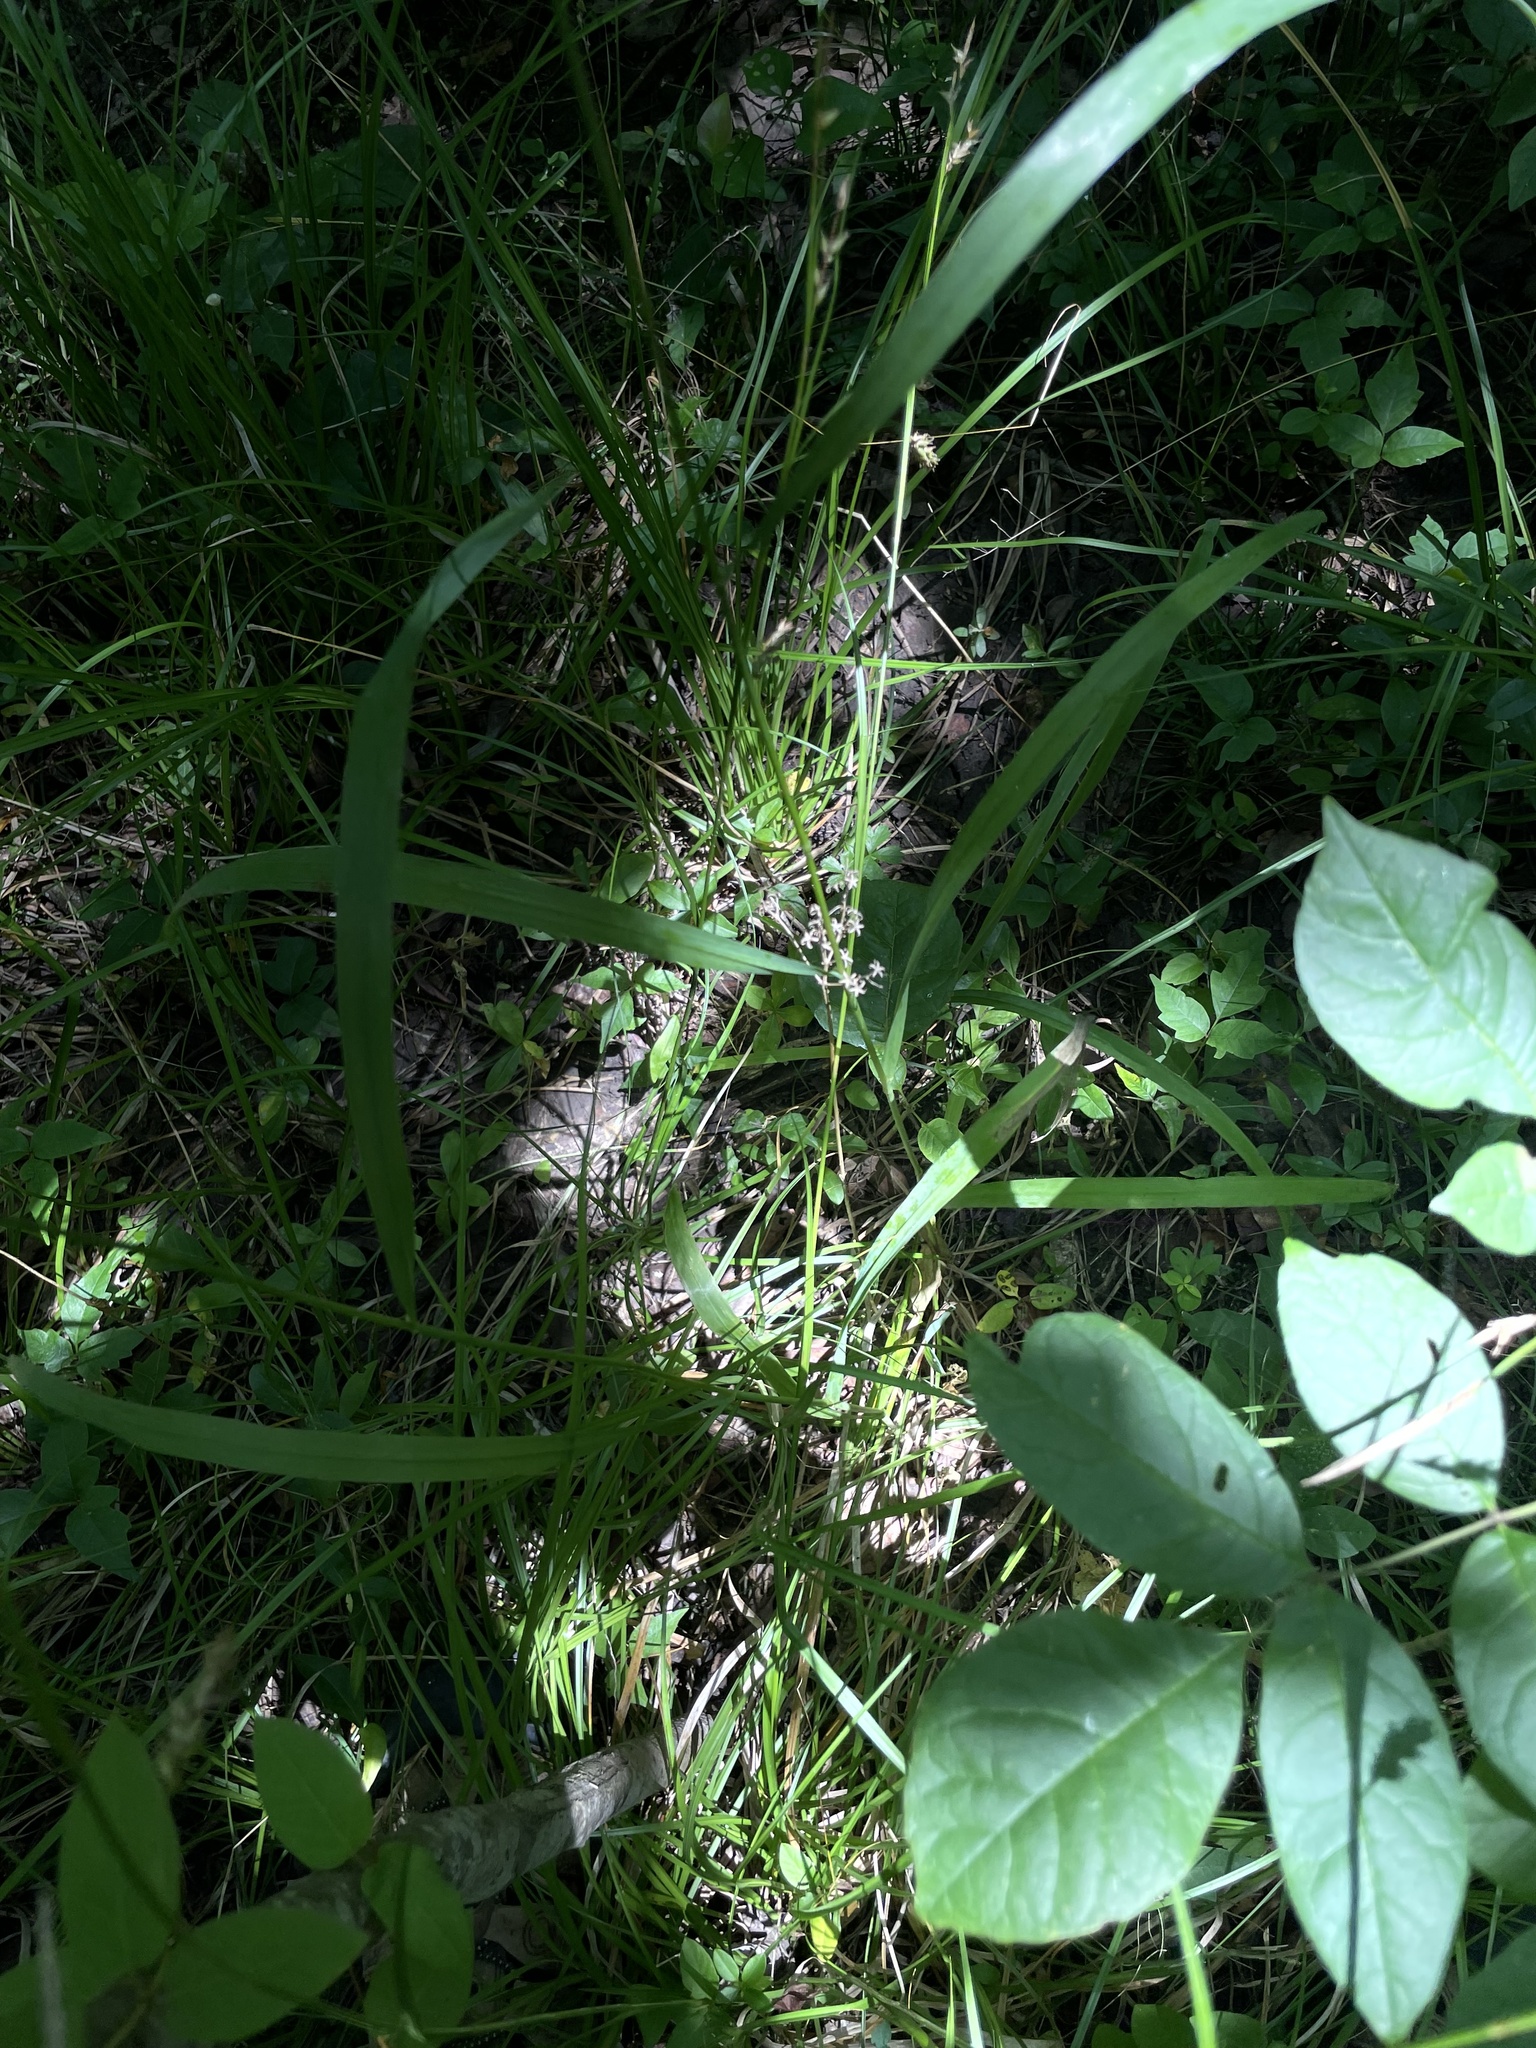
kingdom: Plantae
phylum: Tracheophyta
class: Liliopsida
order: Poales
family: Poaceae
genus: Bromus
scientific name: Bromus pubescens
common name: Hairy wood brome grass
